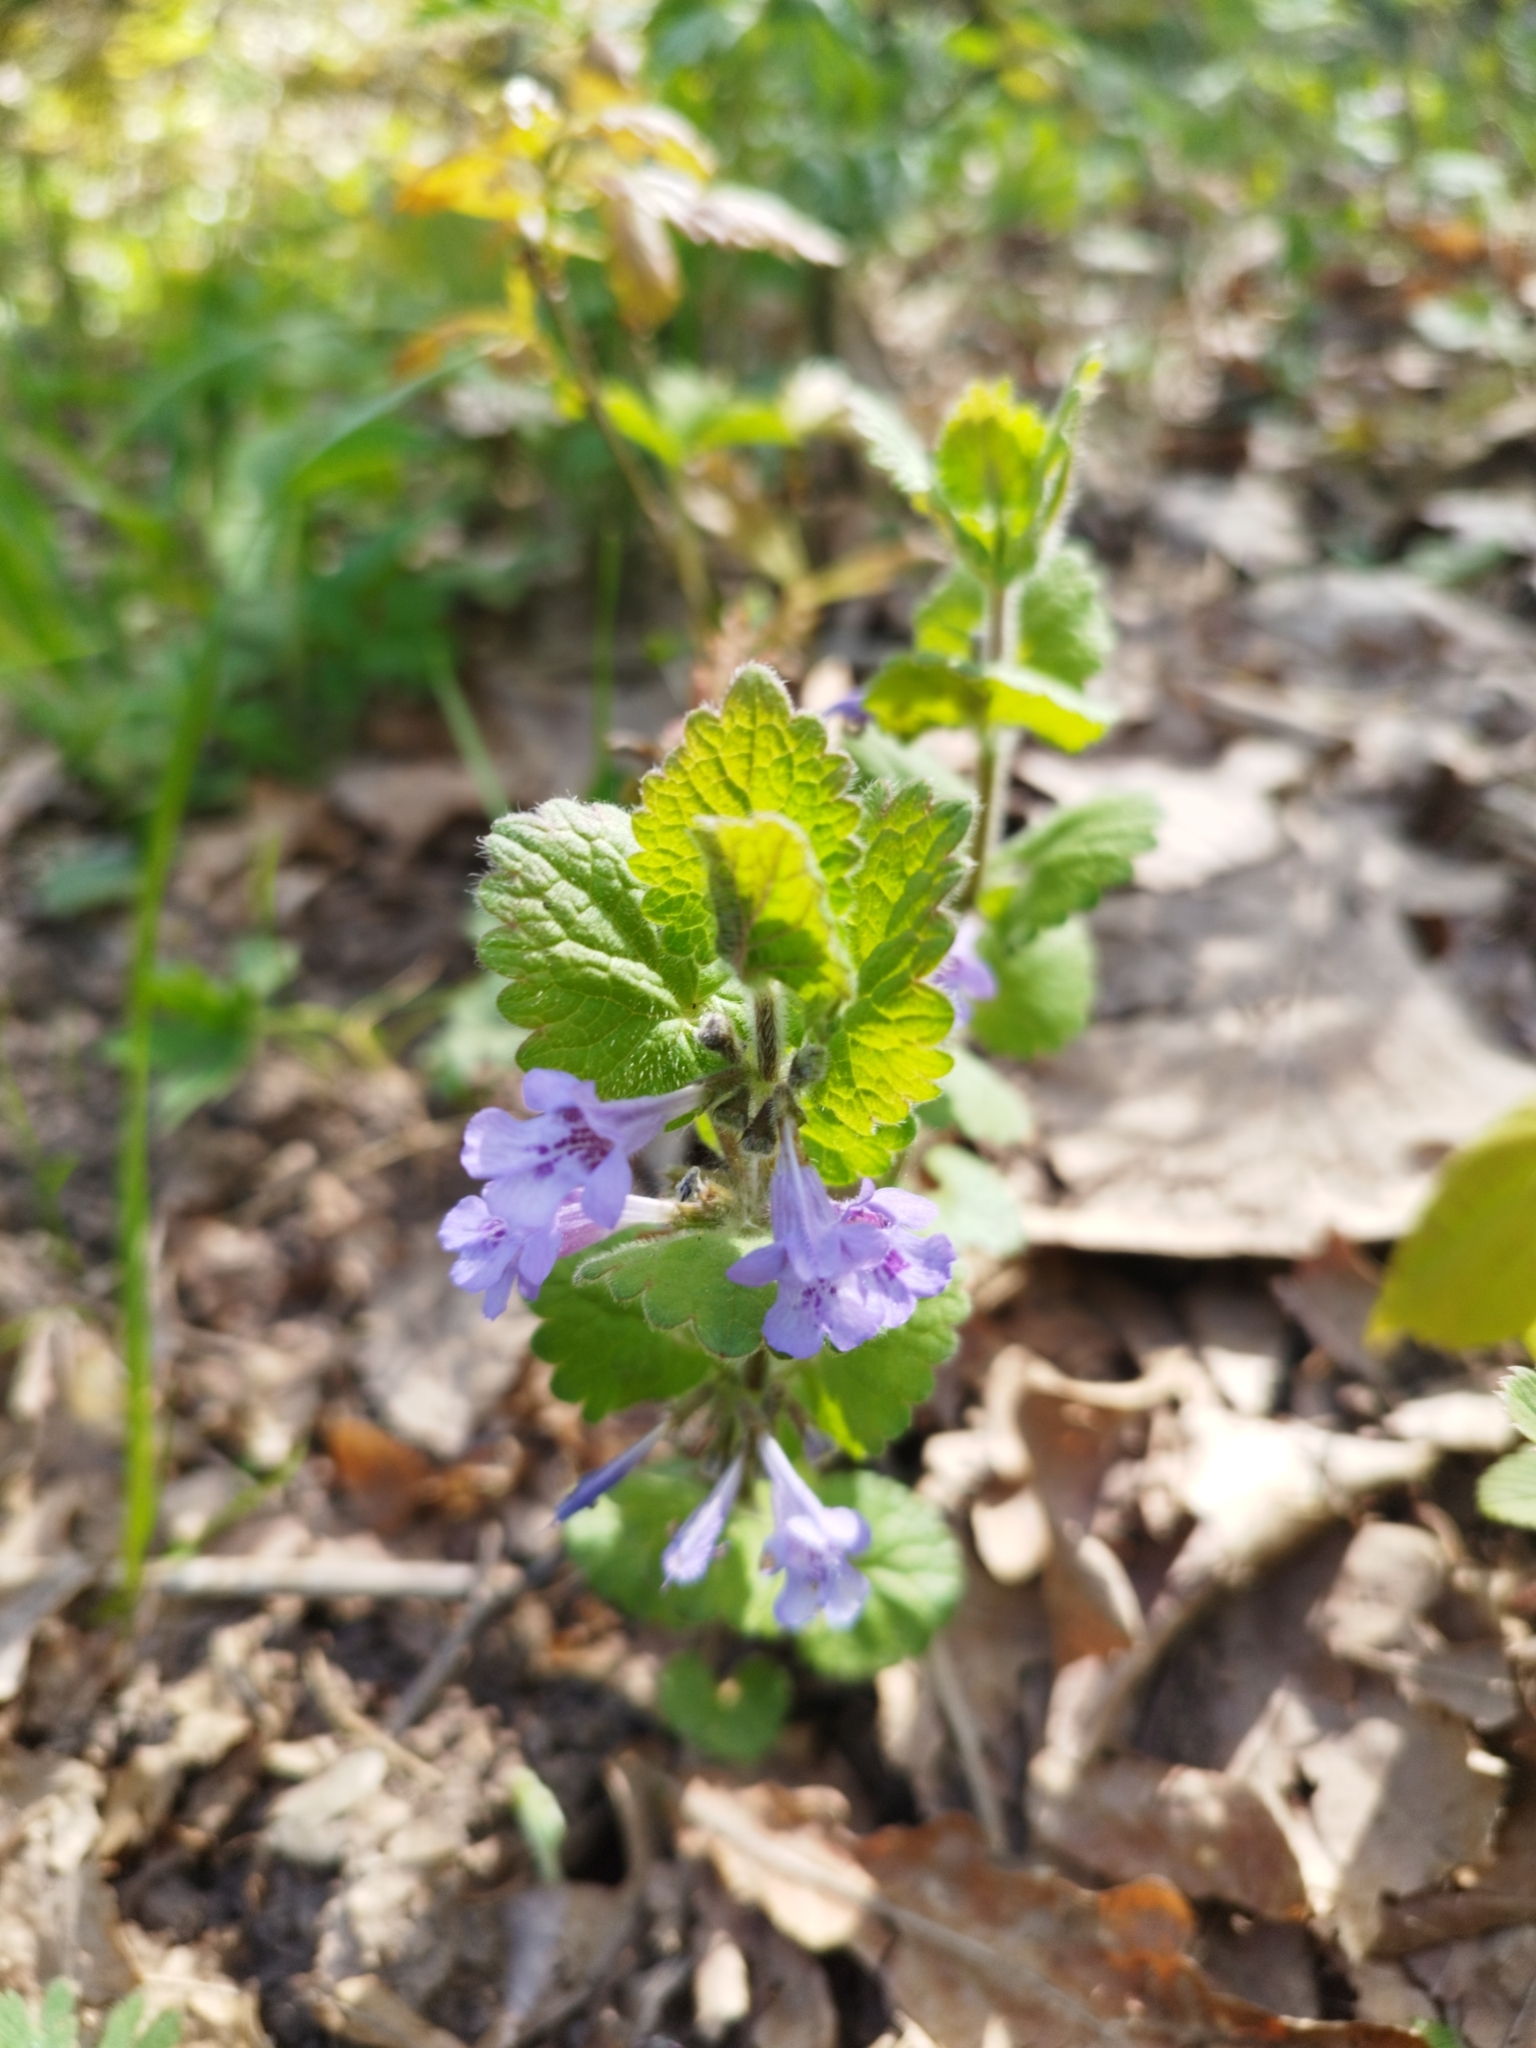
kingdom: Plantae
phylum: Tracheophyta
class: Magnoliopsida
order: Lamiales
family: Lamiaceae
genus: Glechoma
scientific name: Glechoma hederacea
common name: Ground ivy
